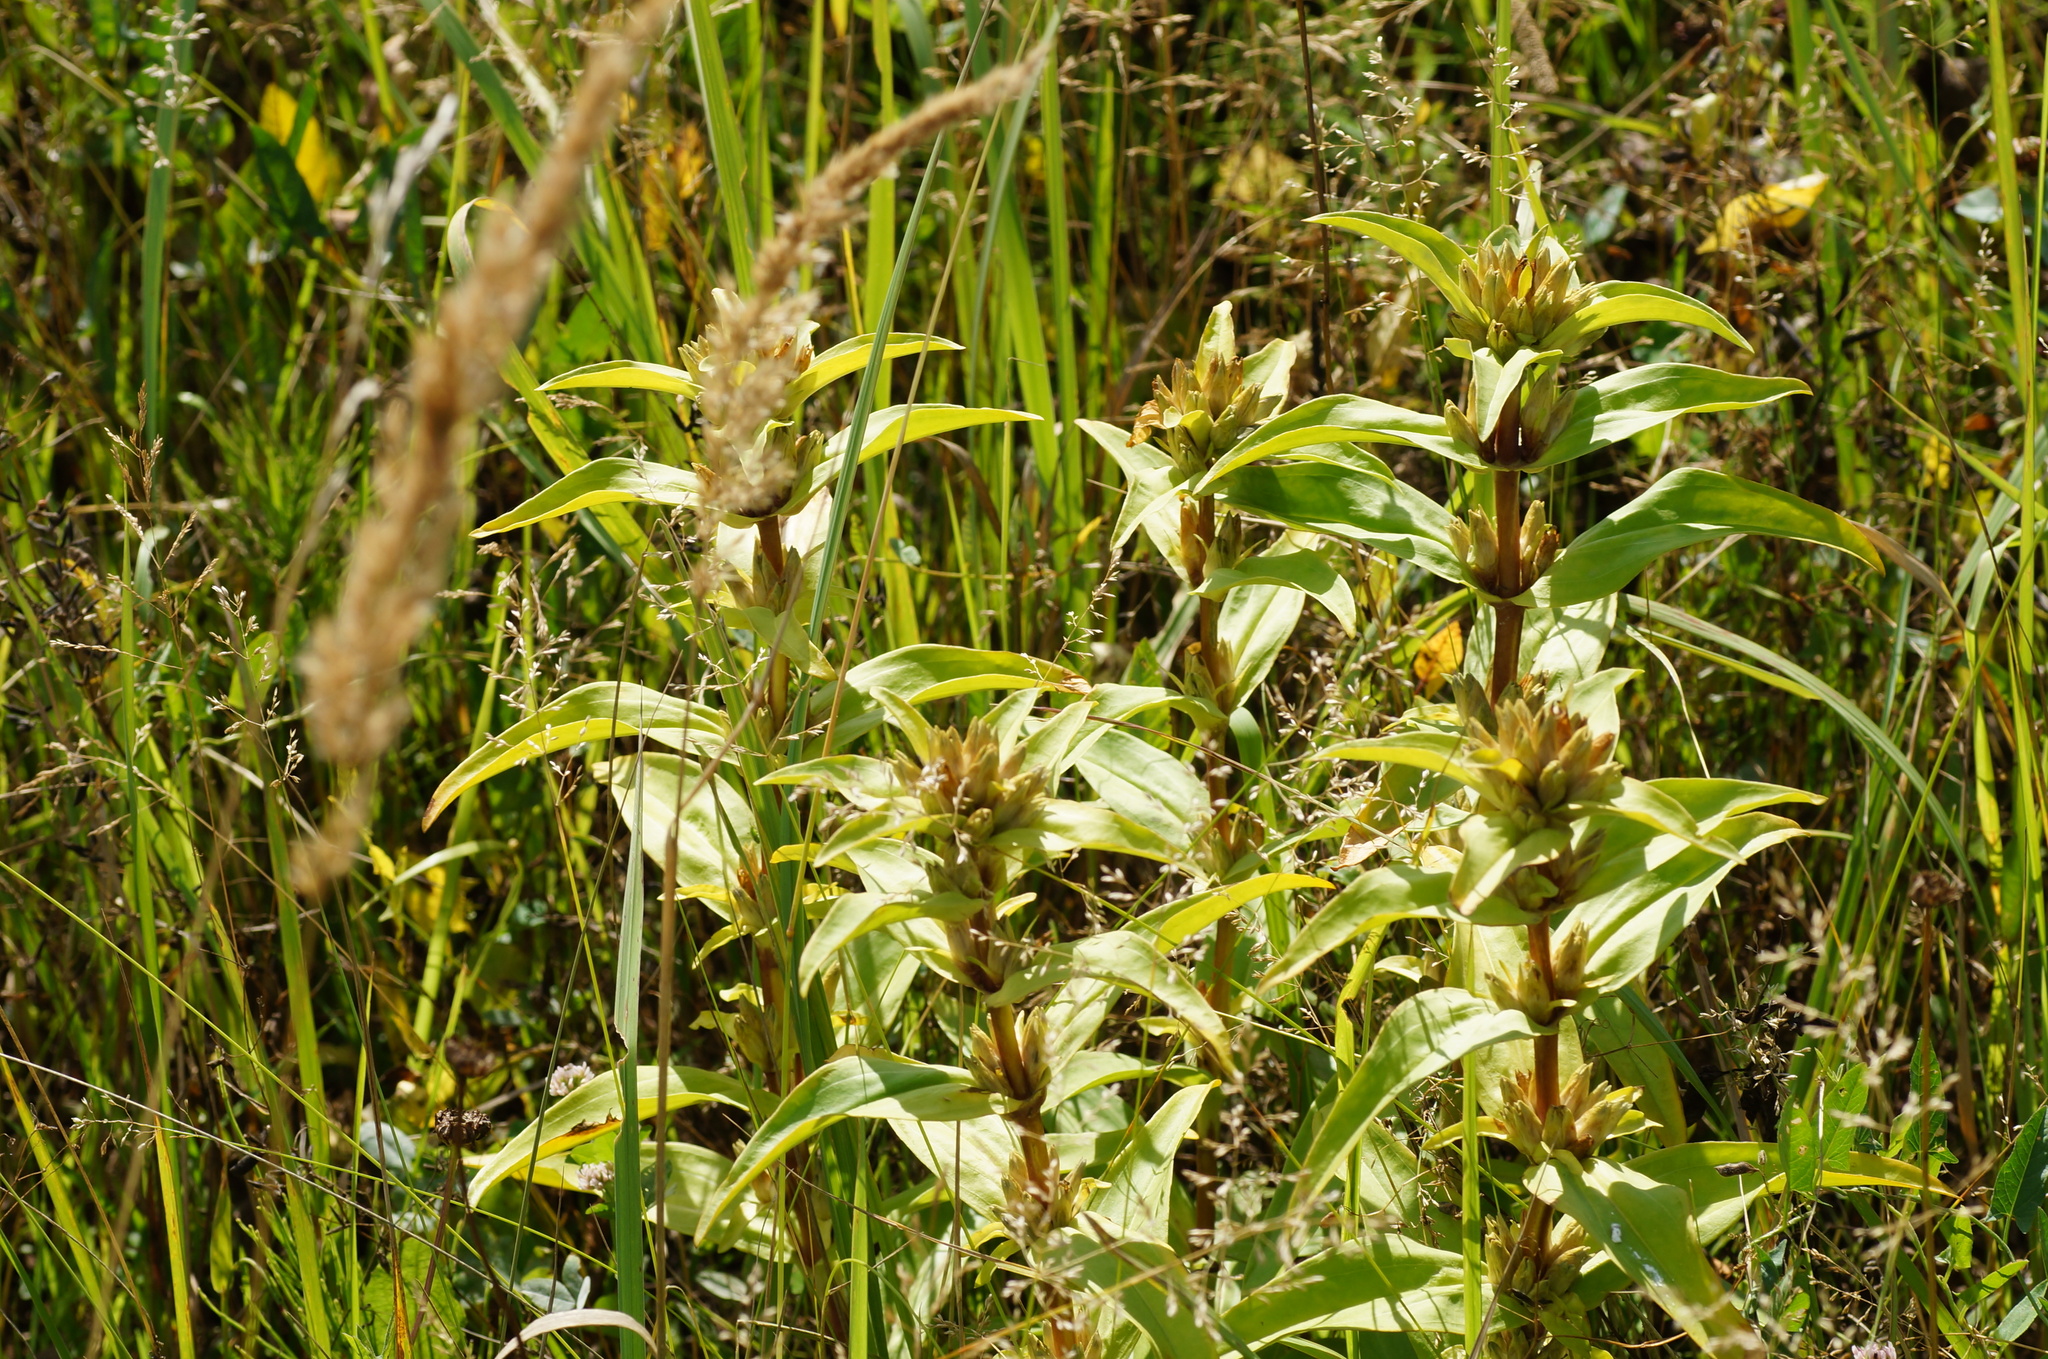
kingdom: Plantae
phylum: Tracheophyta
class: Magnoliopsida
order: Gentianales
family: Gentianaceae
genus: Gentiana
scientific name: Gentiana cruciata
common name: Cross gentian
